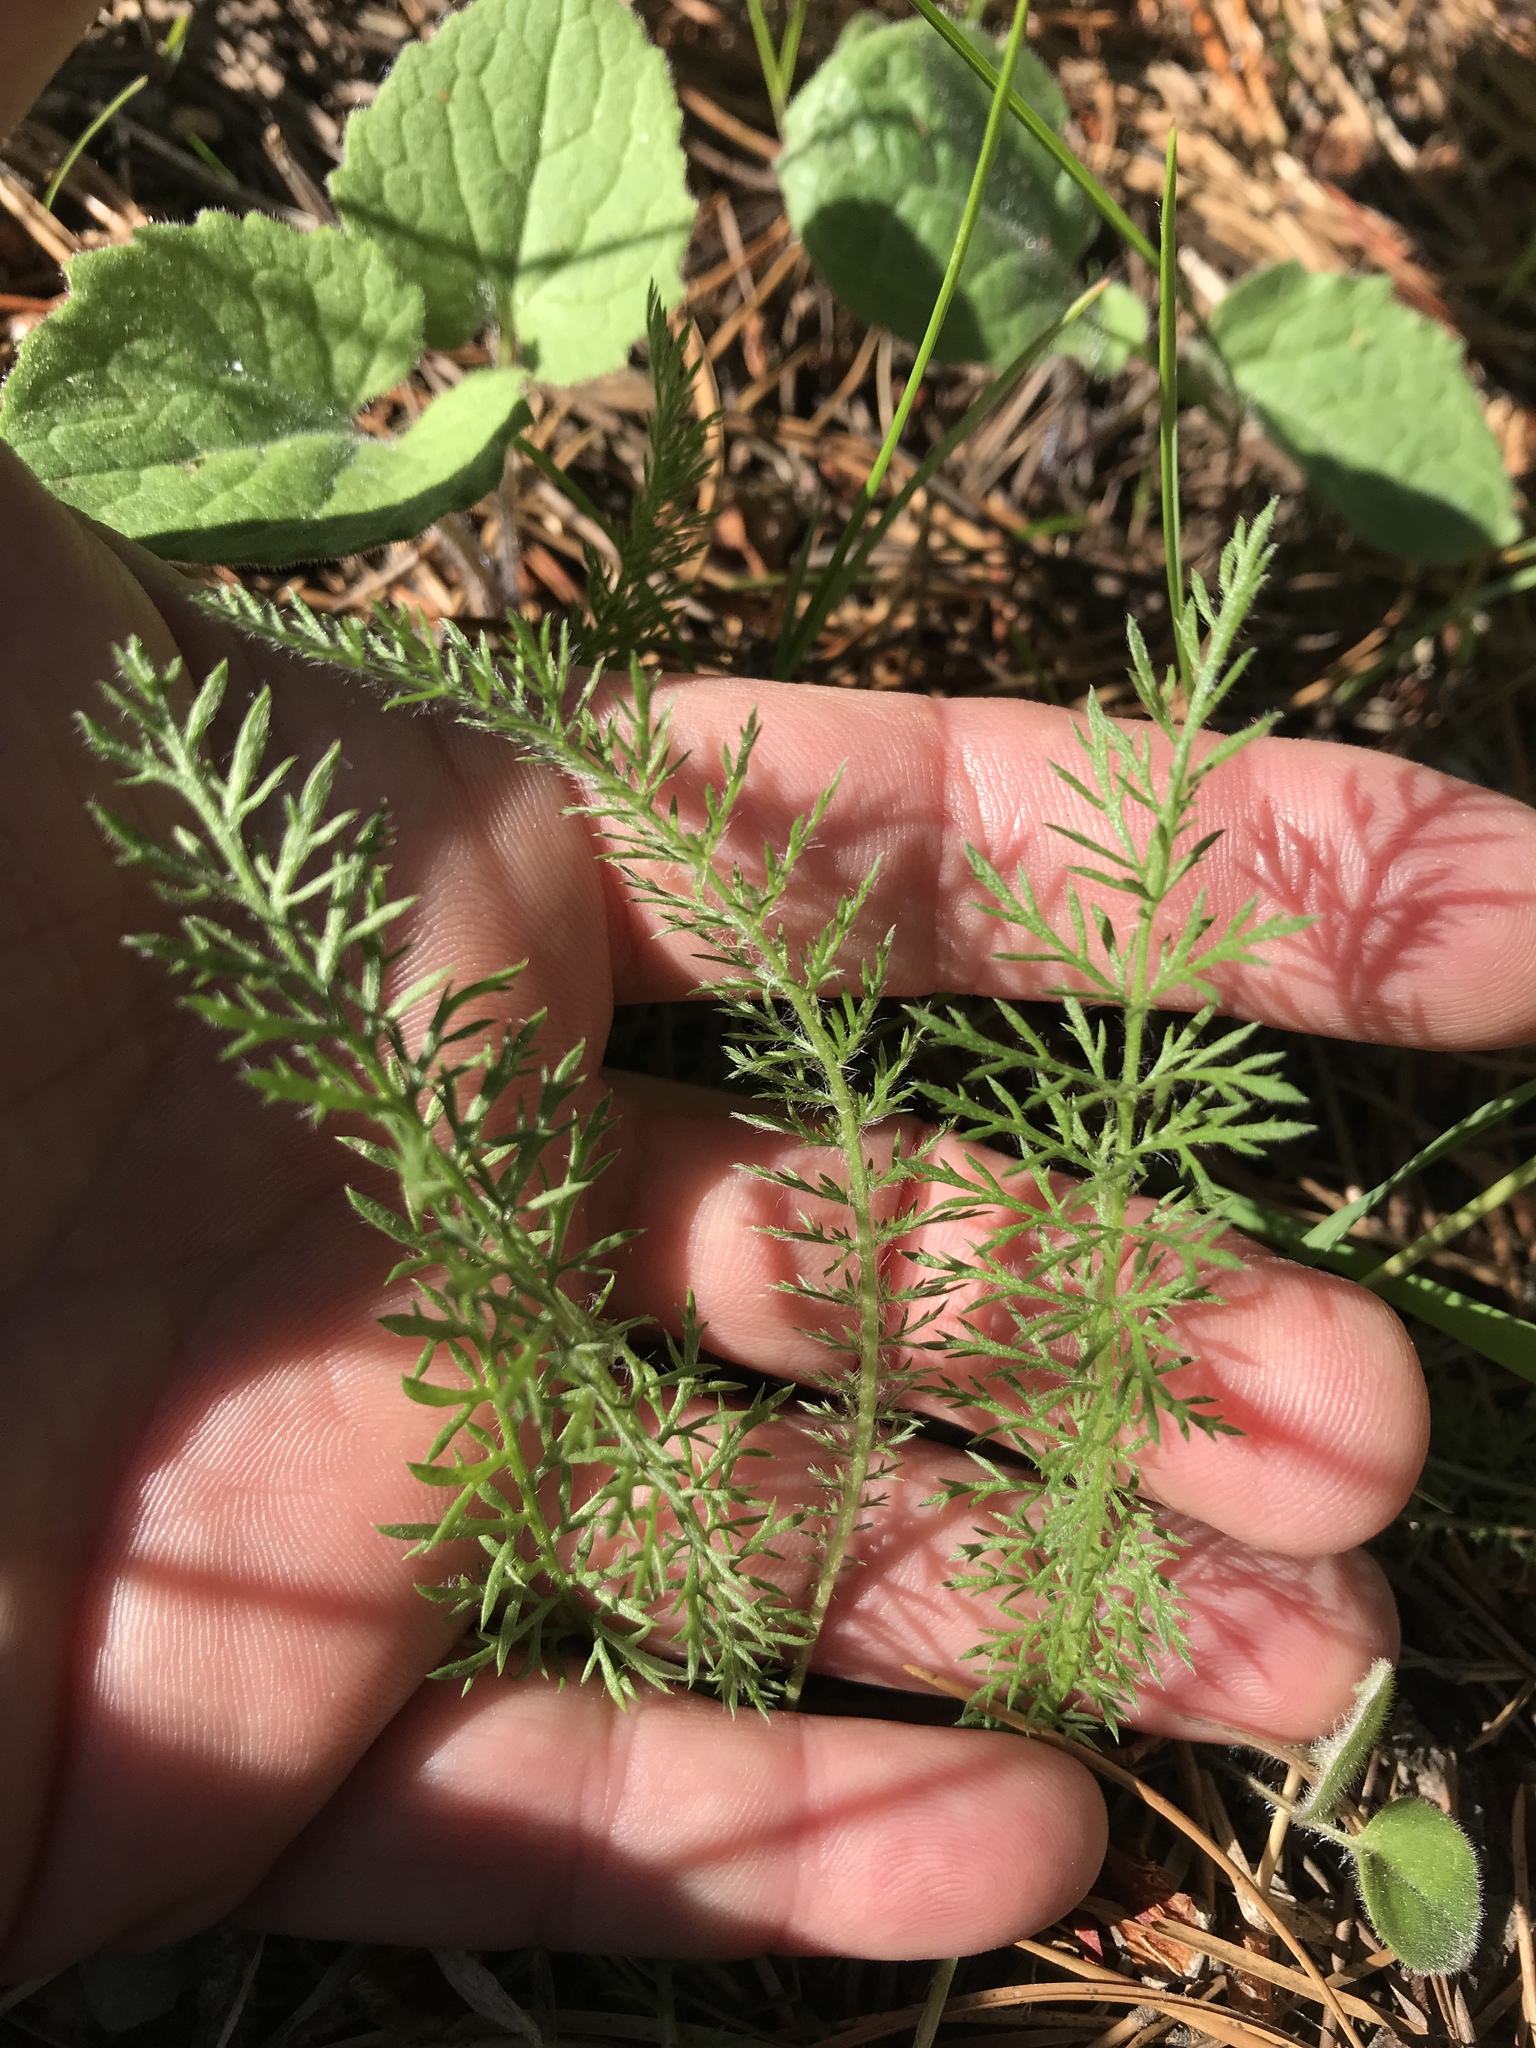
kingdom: Plantae
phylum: Tracheophyta
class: Magnoliopsida
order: Asterales
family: Asteraceae
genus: Achillea
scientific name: Achillea millefolium
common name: Yarrow
